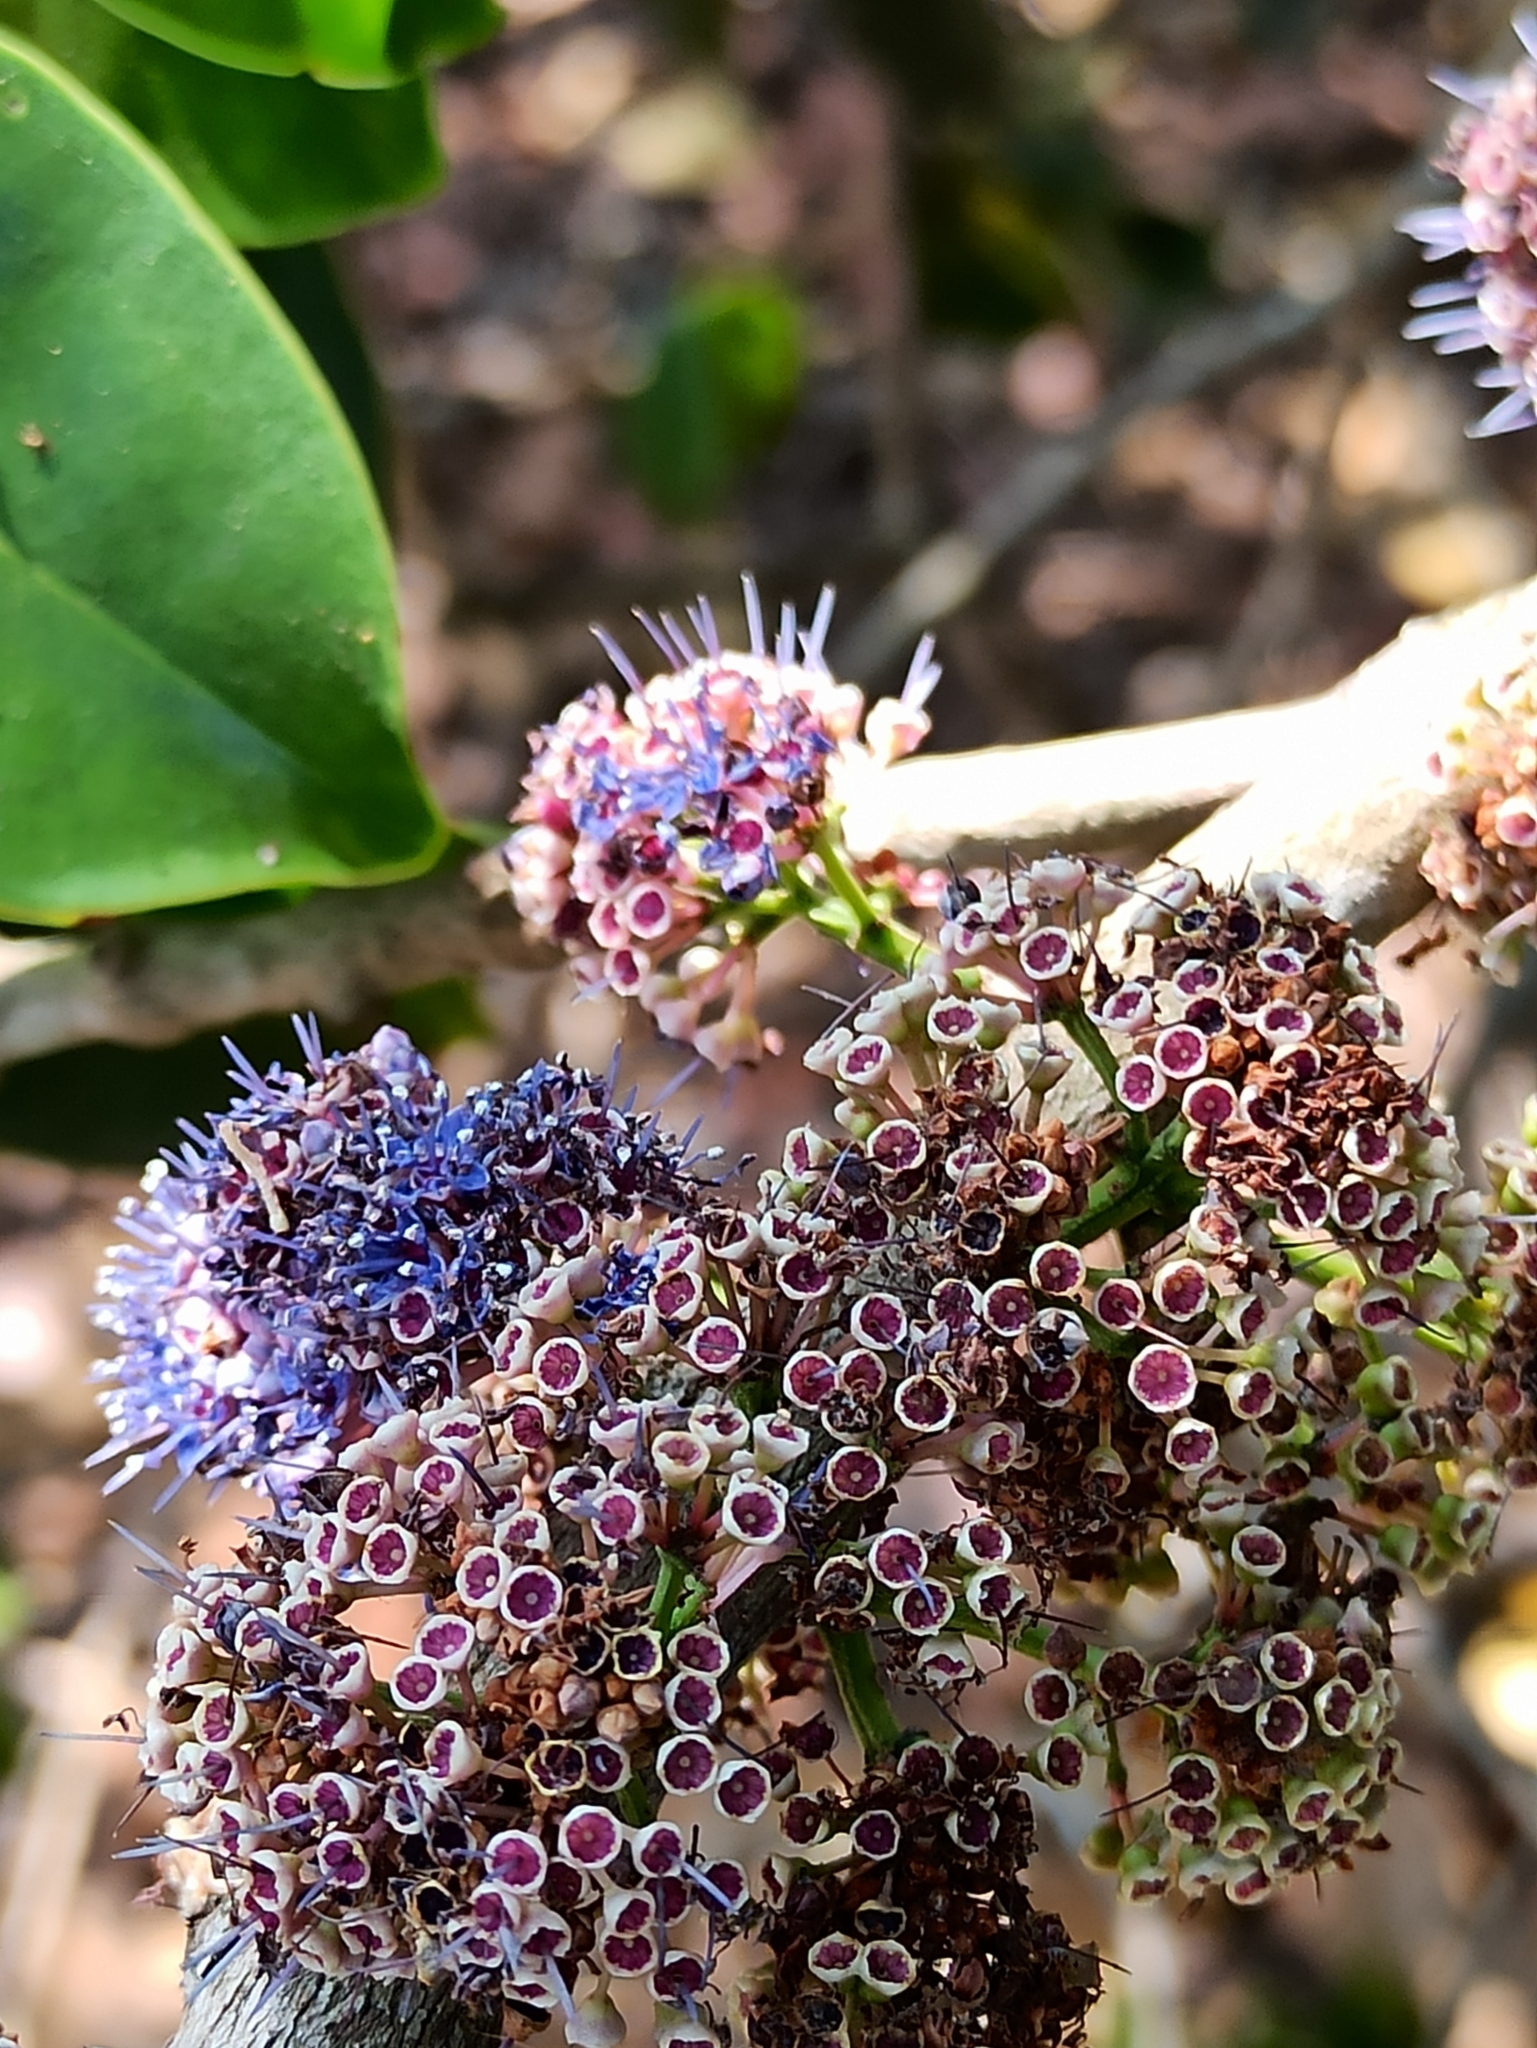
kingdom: Plantae
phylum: Tracheophyta
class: Magnoliopsida
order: Myrtales
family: Melastomataceae
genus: Memecylon
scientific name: Memecylon umbellatum
